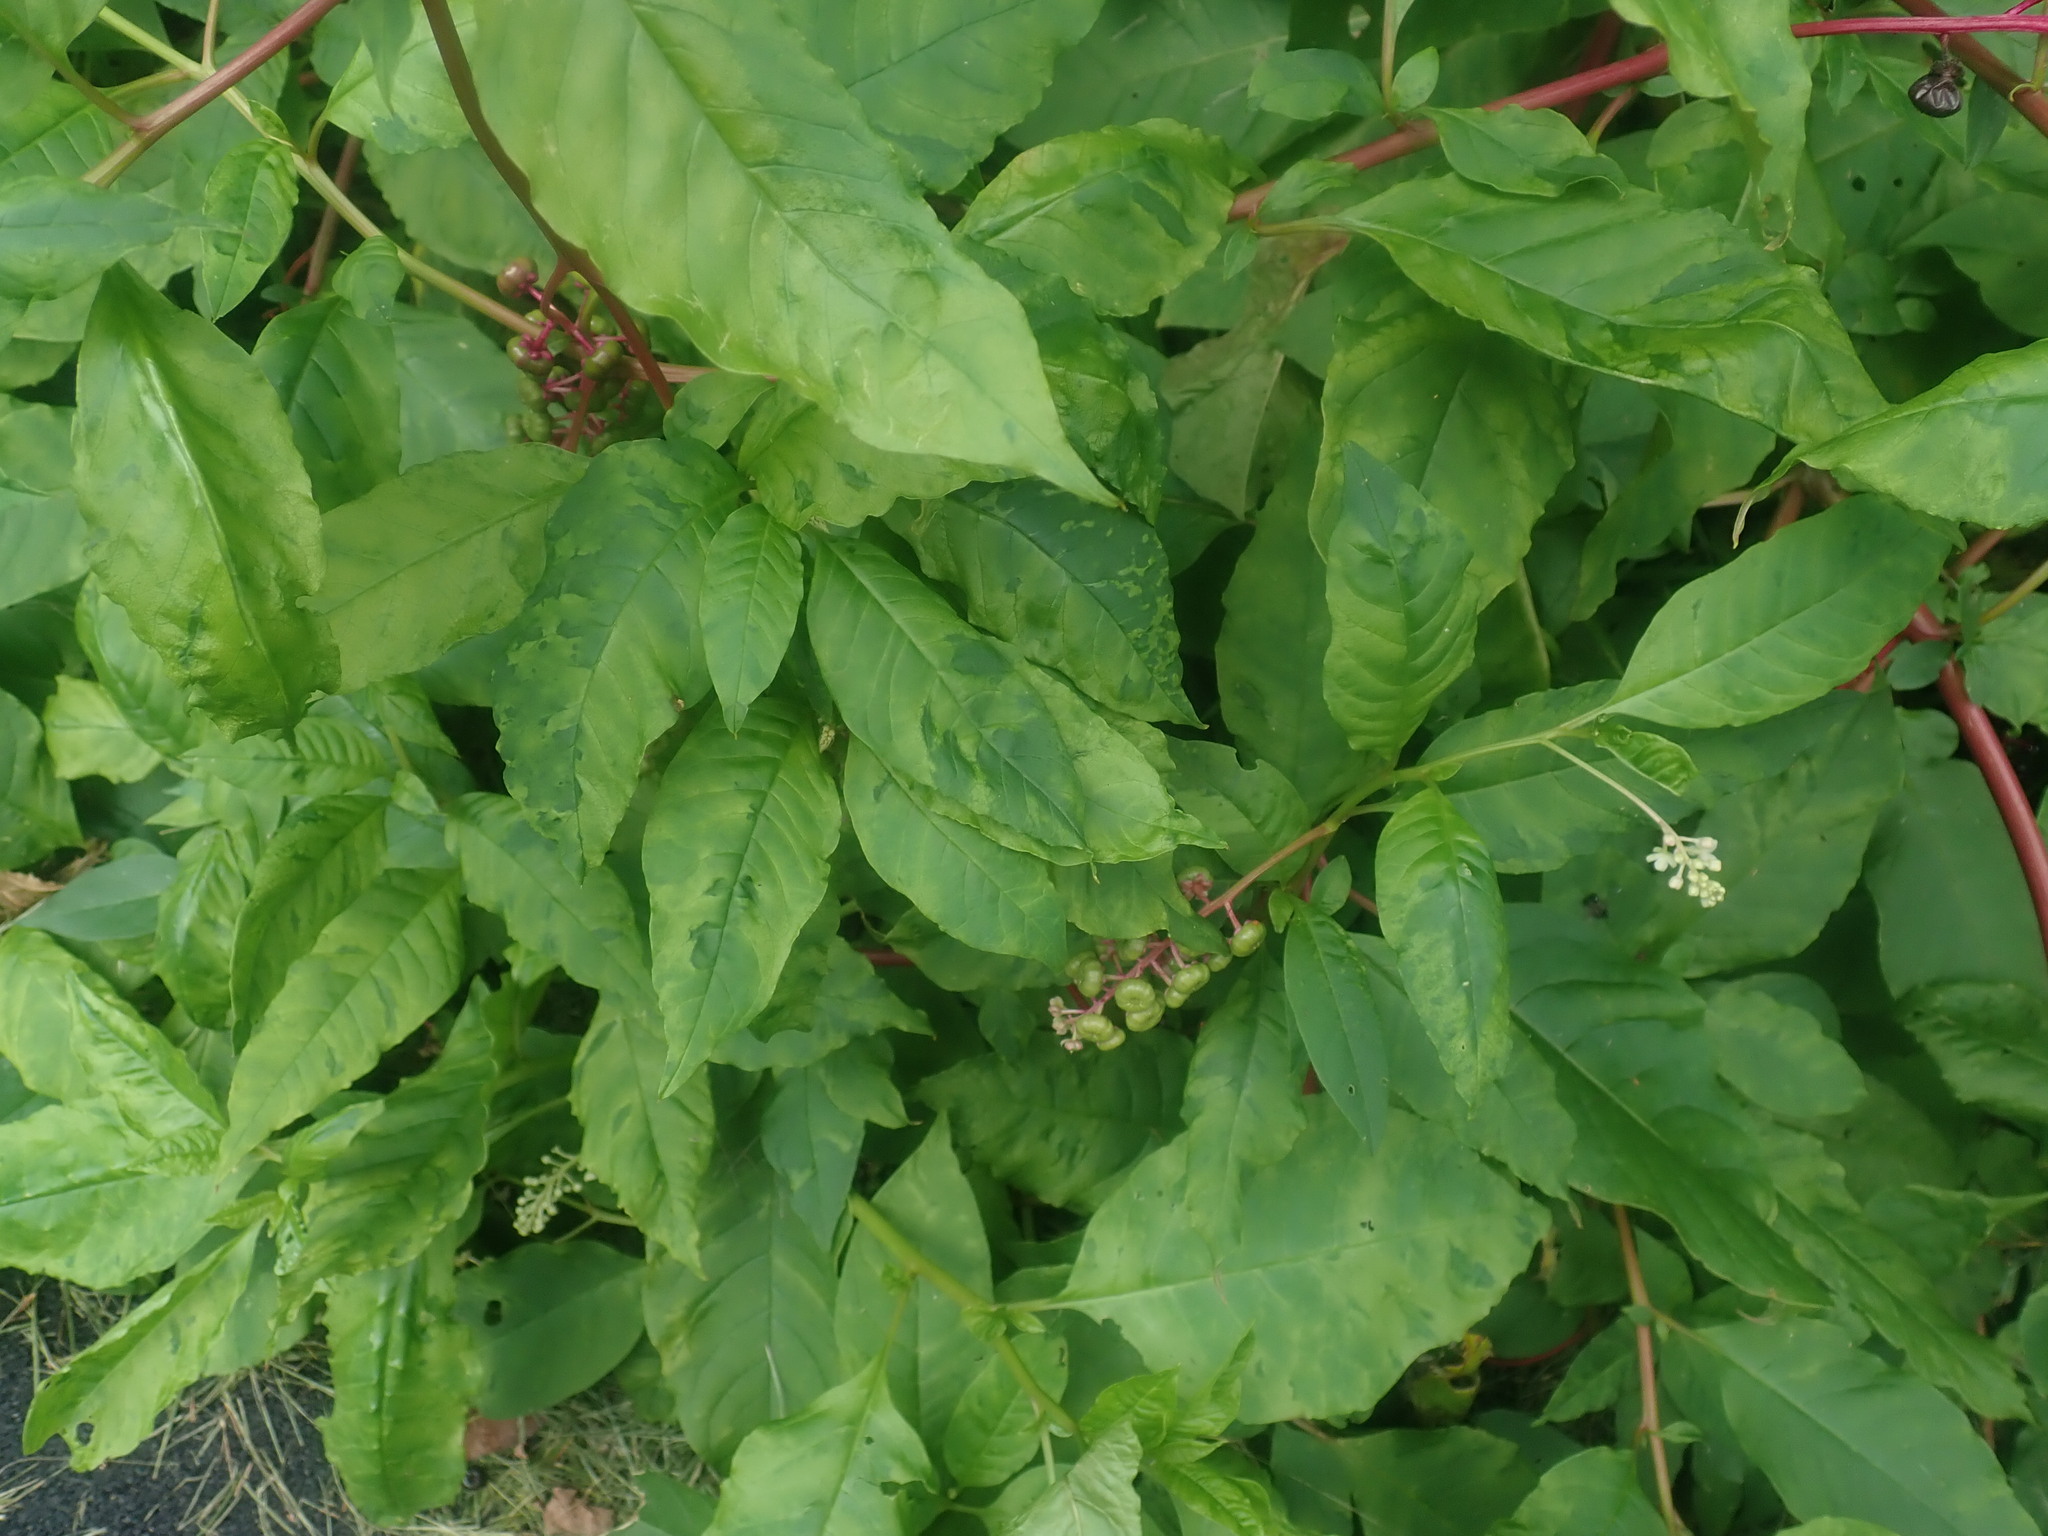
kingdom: Viruses
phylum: Pisuviricota
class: Stelpaviricetes
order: Patatavirales
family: Potyviridae
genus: Potyvirus
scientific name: Potyvirus Pokeweed mosaic virus
